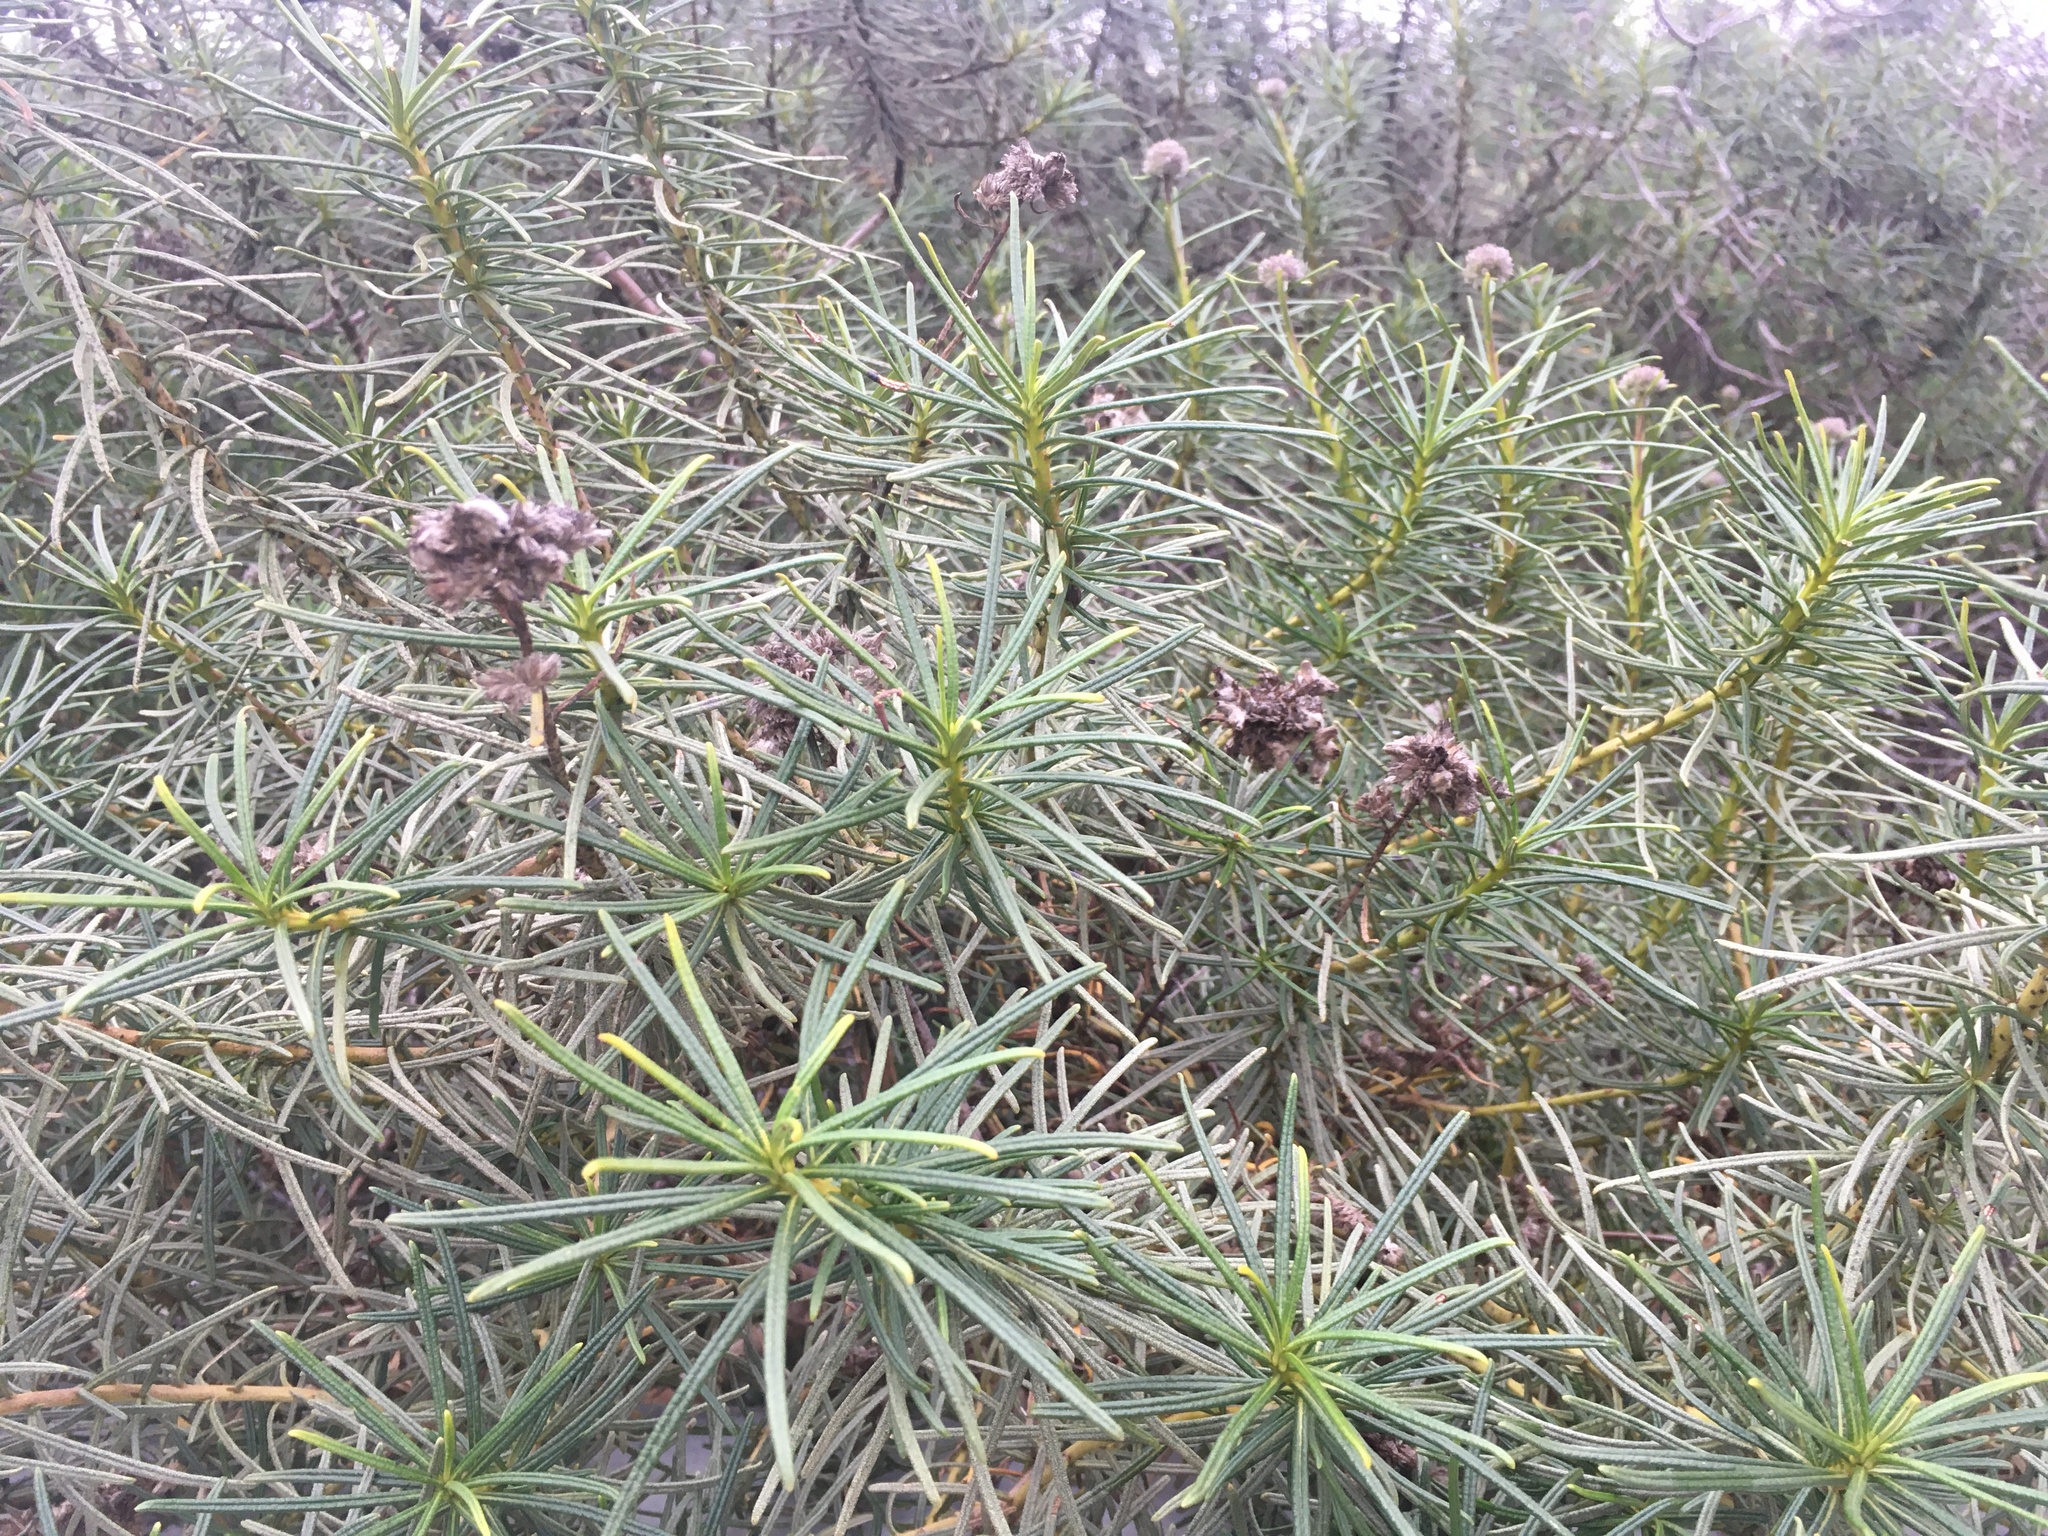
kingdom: Plantae
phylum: Tracheophyta
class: Magnoliopsida
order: Boraginales
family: Namaceae
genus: Eriodictyon
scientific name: Eriodictyon capitatum
